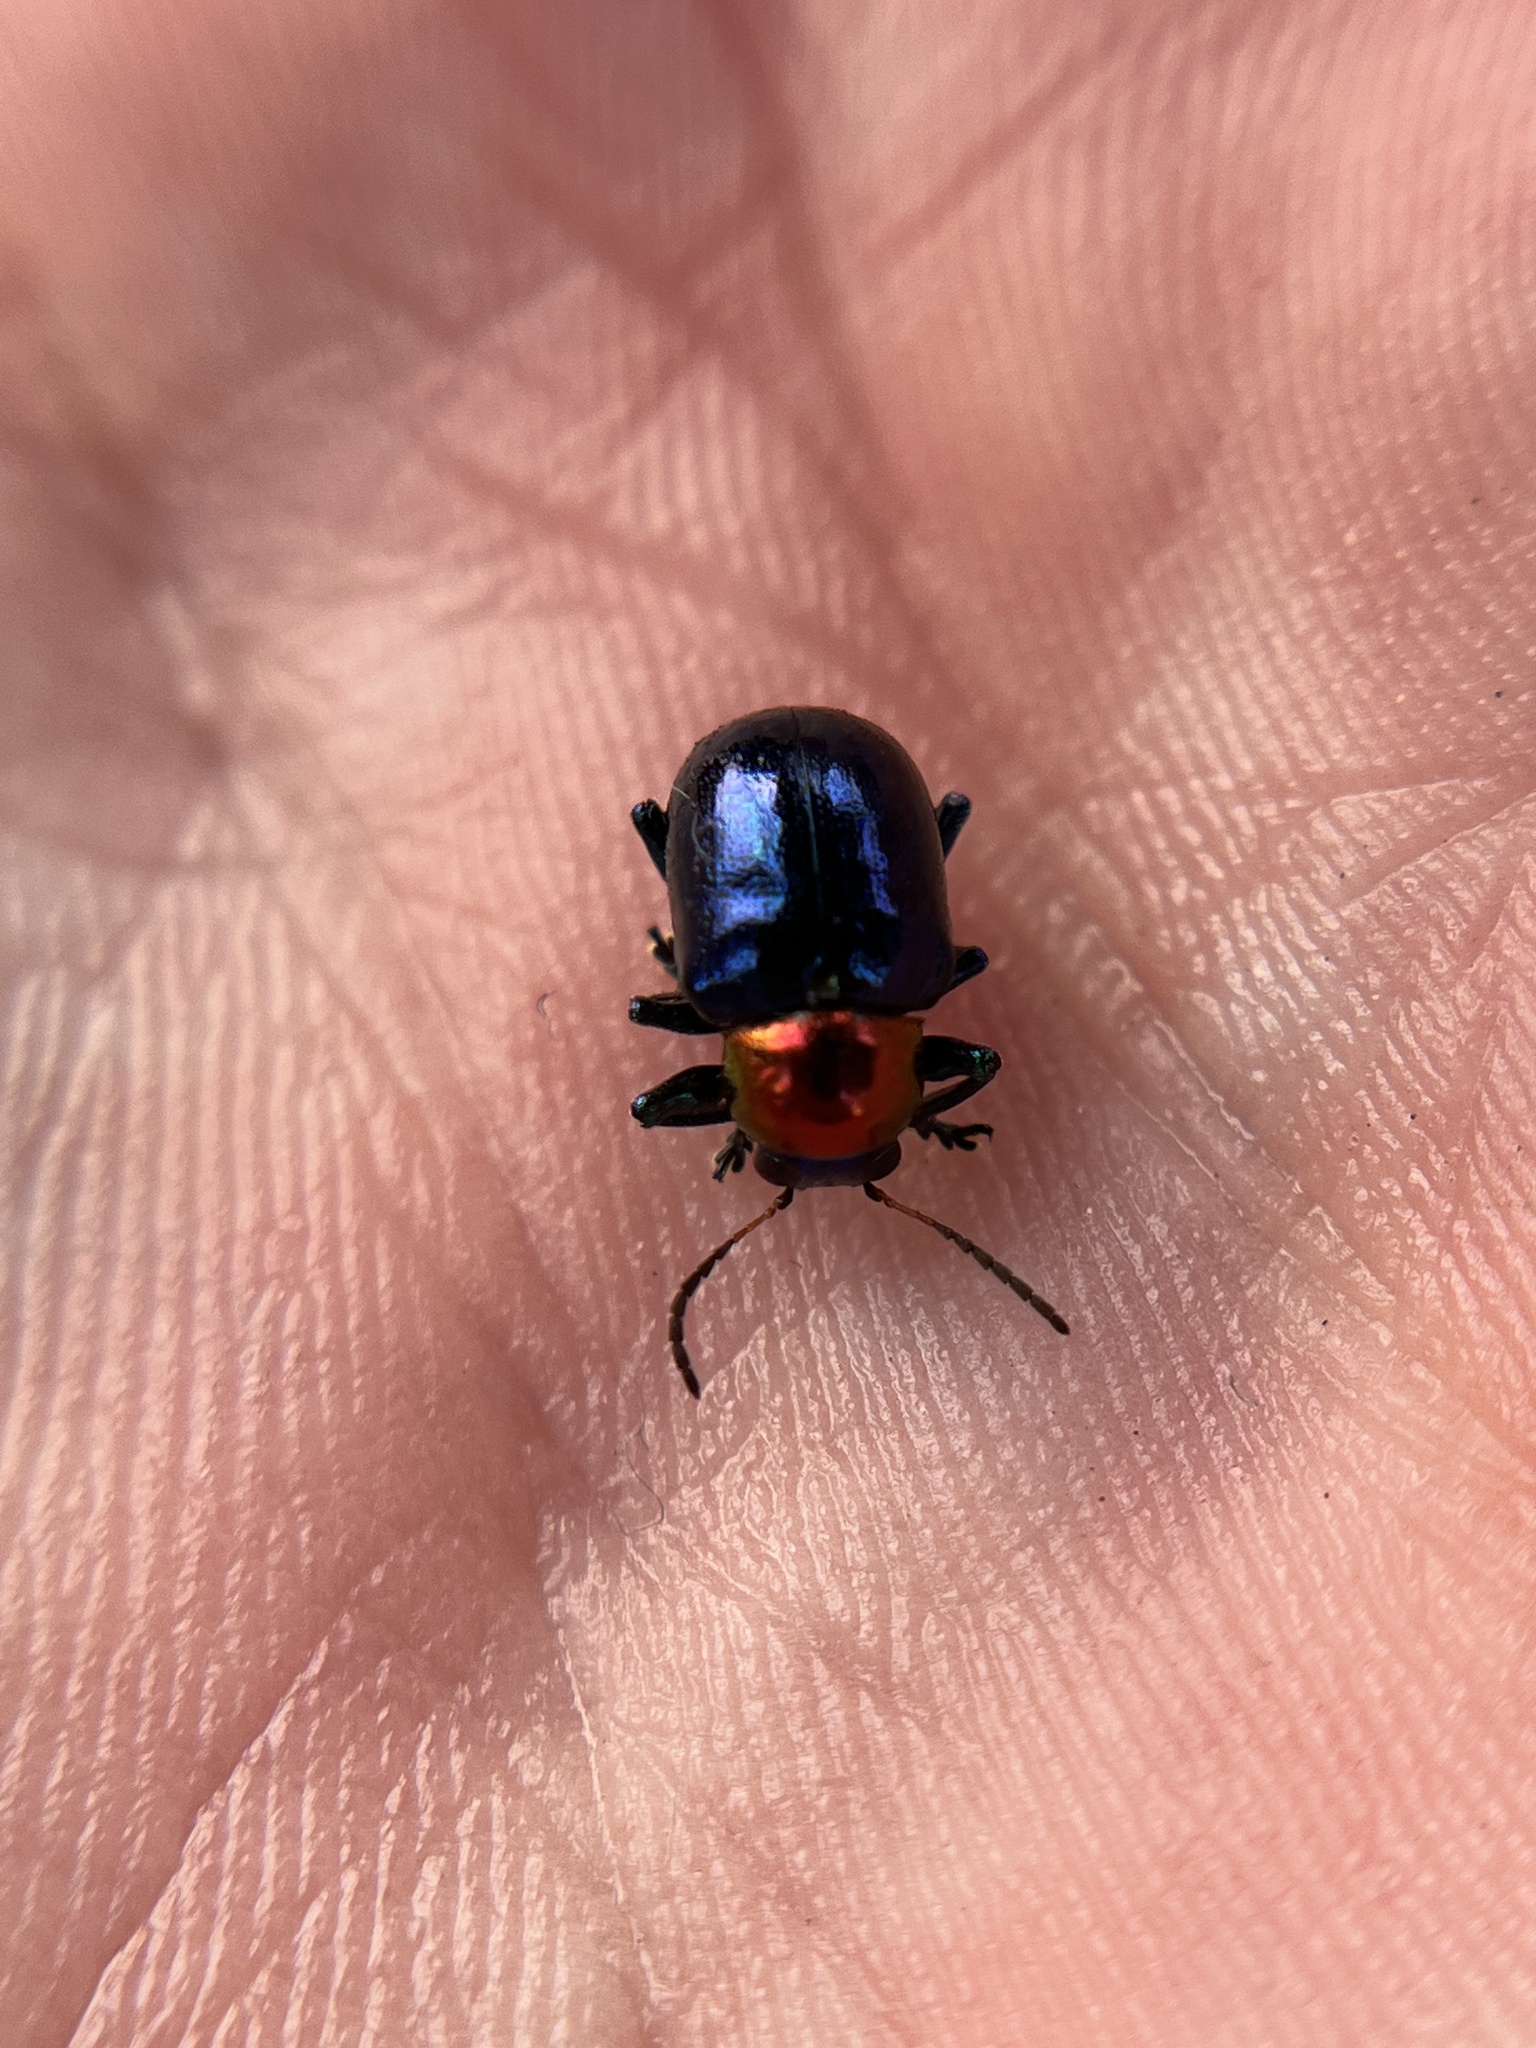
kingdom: Animalia
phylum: Arthropoda
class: Insecta
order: Coleoptera
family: Chrysomelidae
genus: Parheminodes
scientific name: Parheminodes
